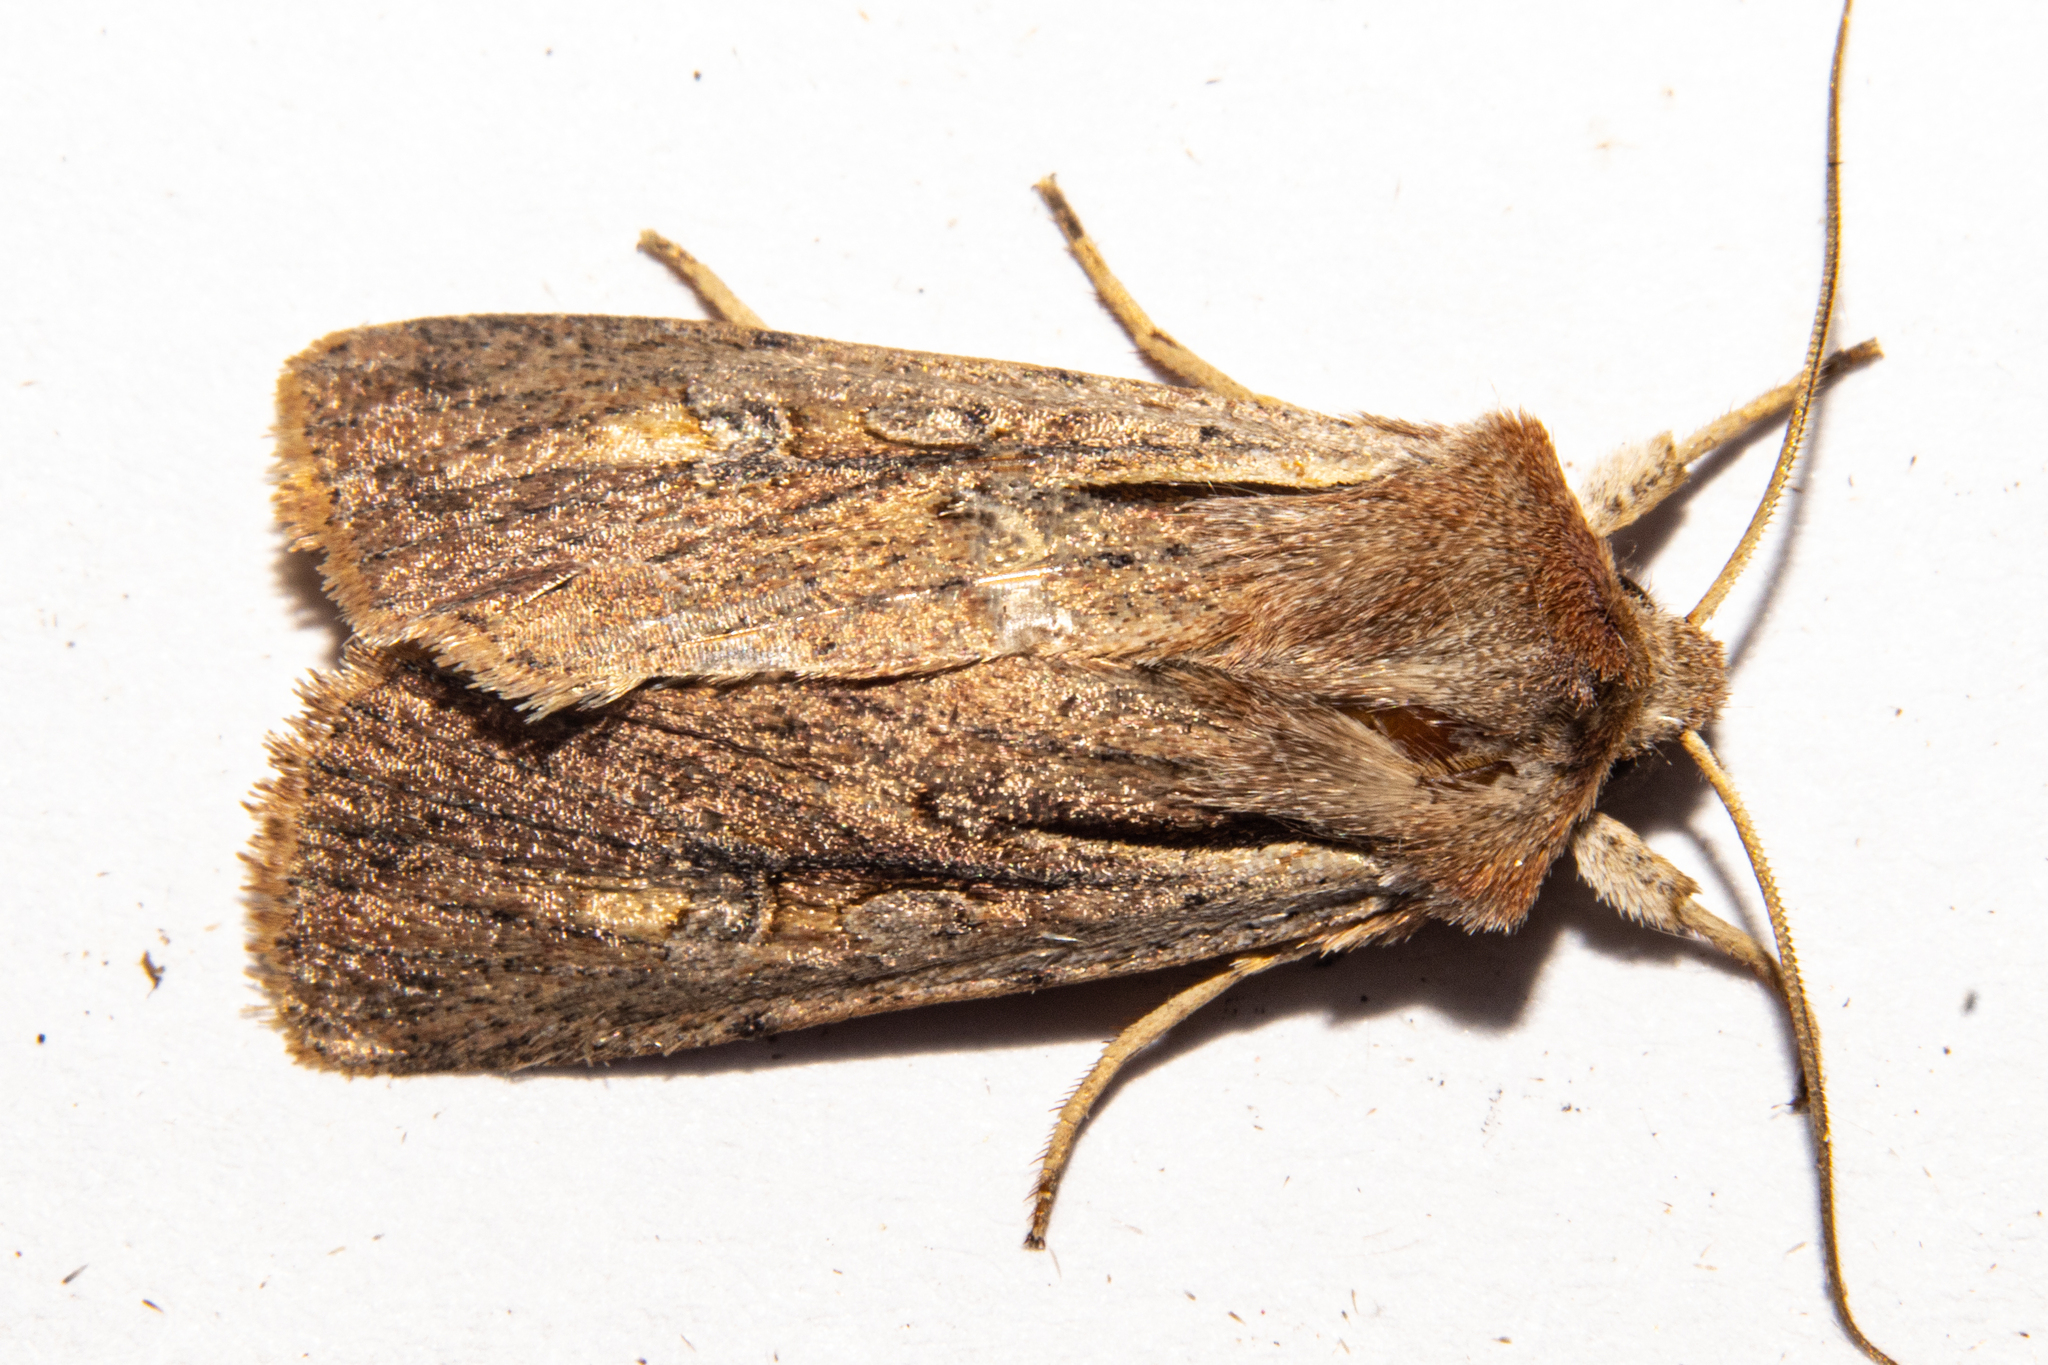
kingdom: Animalia
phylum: Arthropoda
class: Insecta
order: Lepidoptera
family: Noctuidae
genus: Ichneutica
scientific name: Ichneutica atristriga
